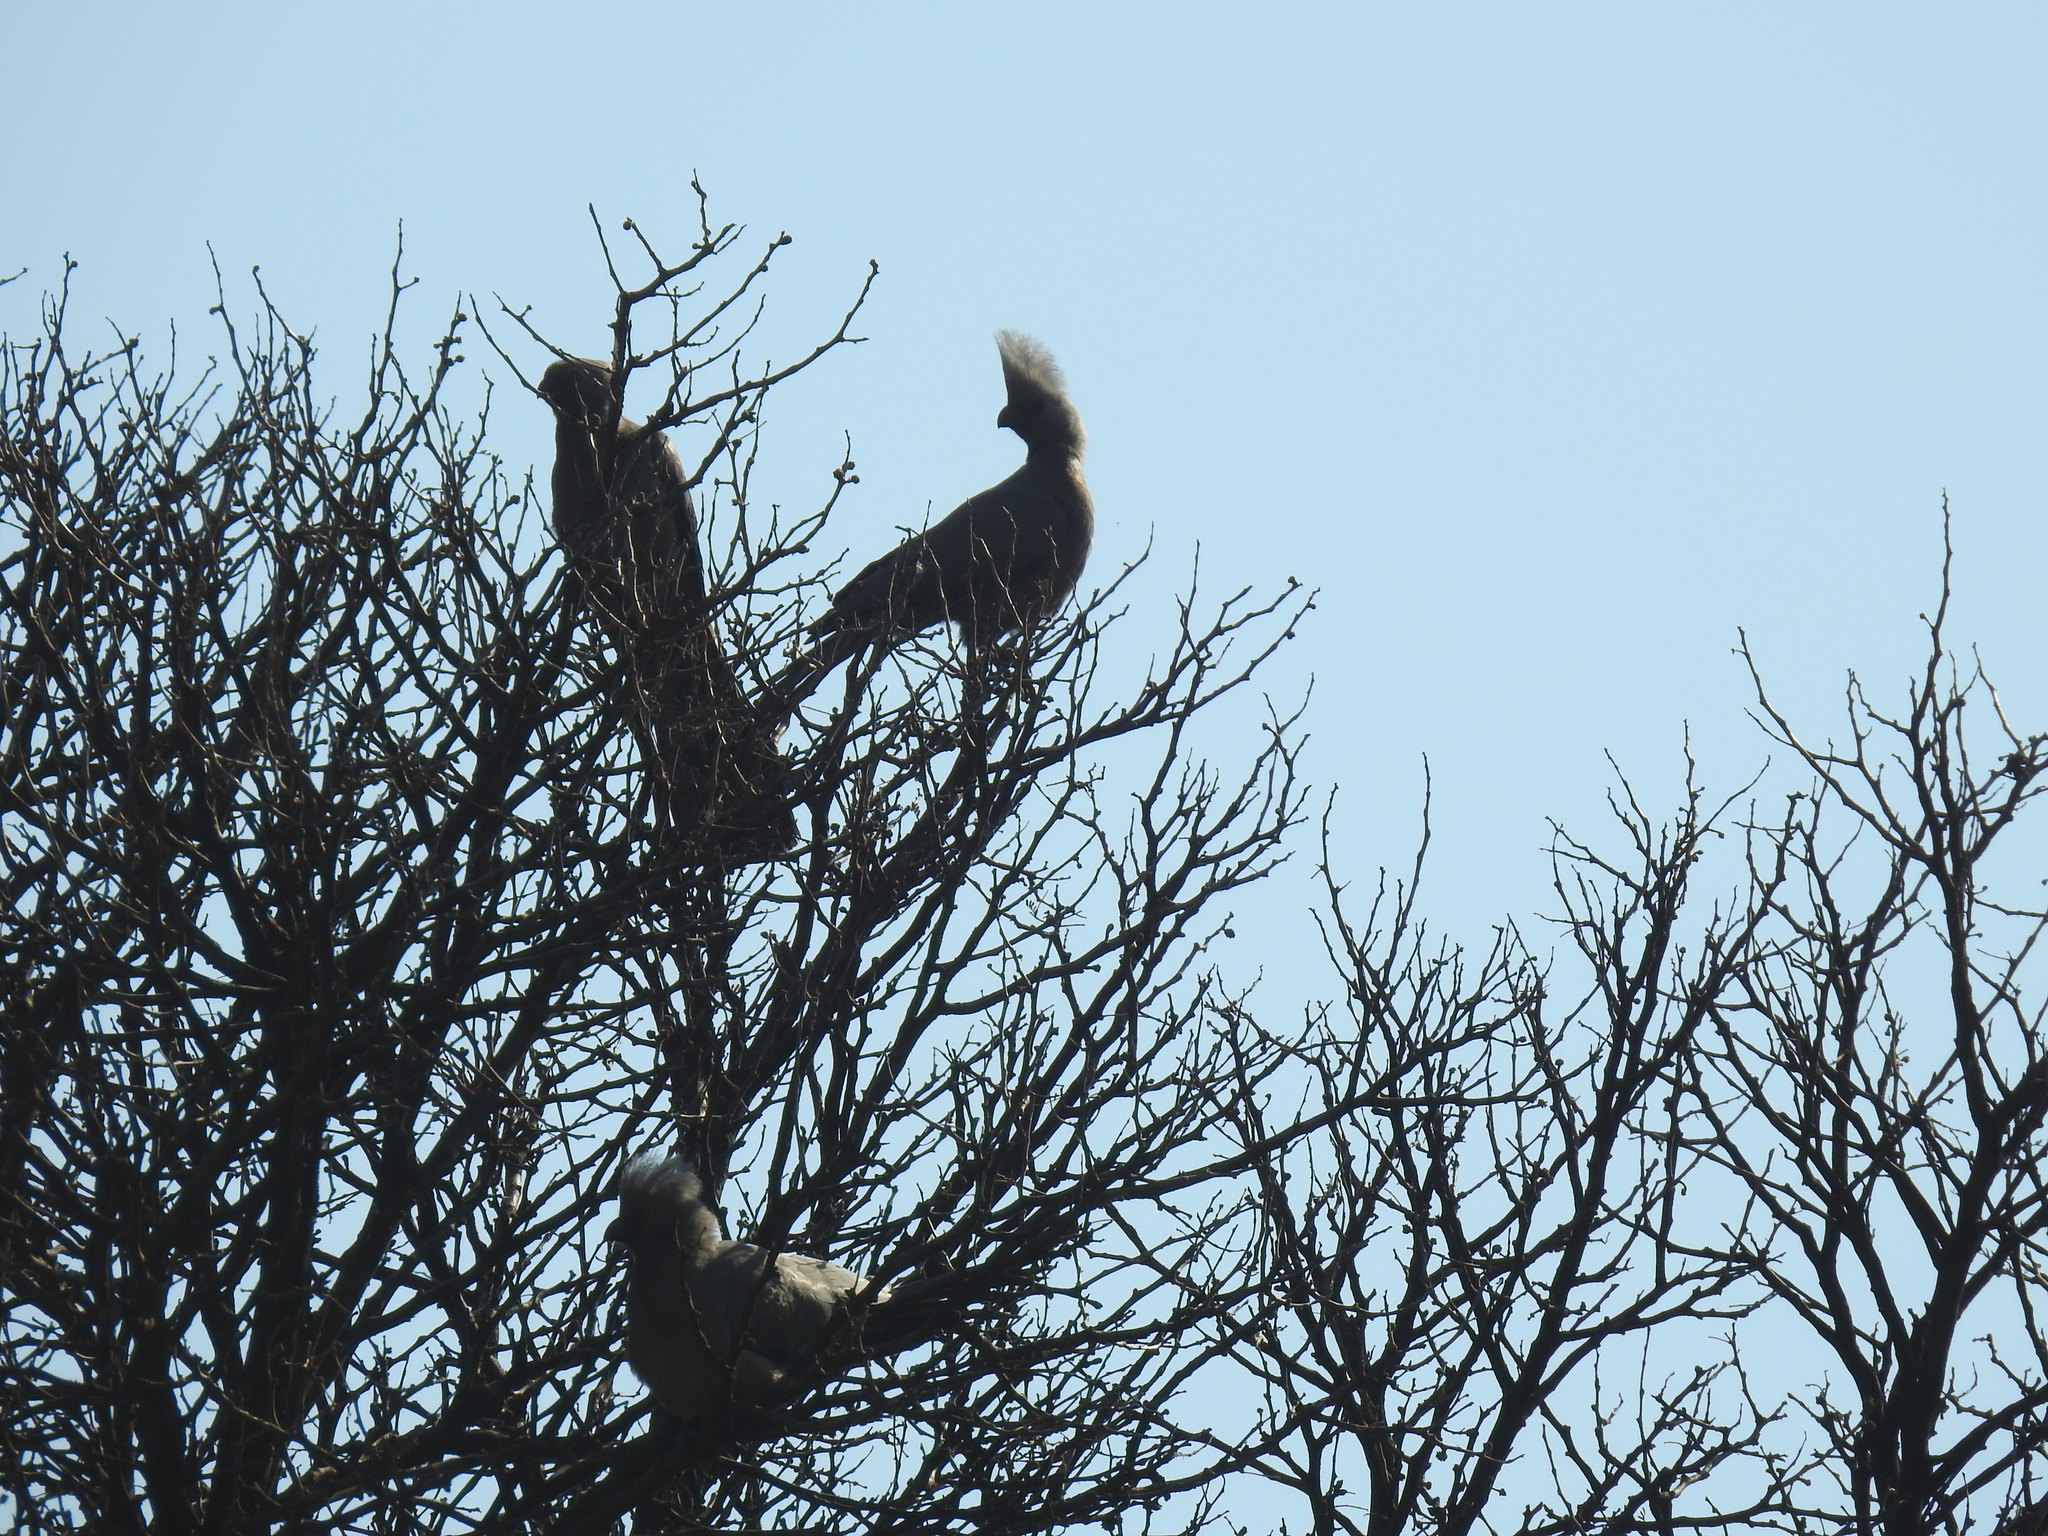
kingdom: Animalia
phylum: Chordata
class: Aves
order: Musophagiformes
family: Musophagidae
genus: Corythaixoides
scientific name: Corythaixoides concolor
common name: Grey go-away-bird
